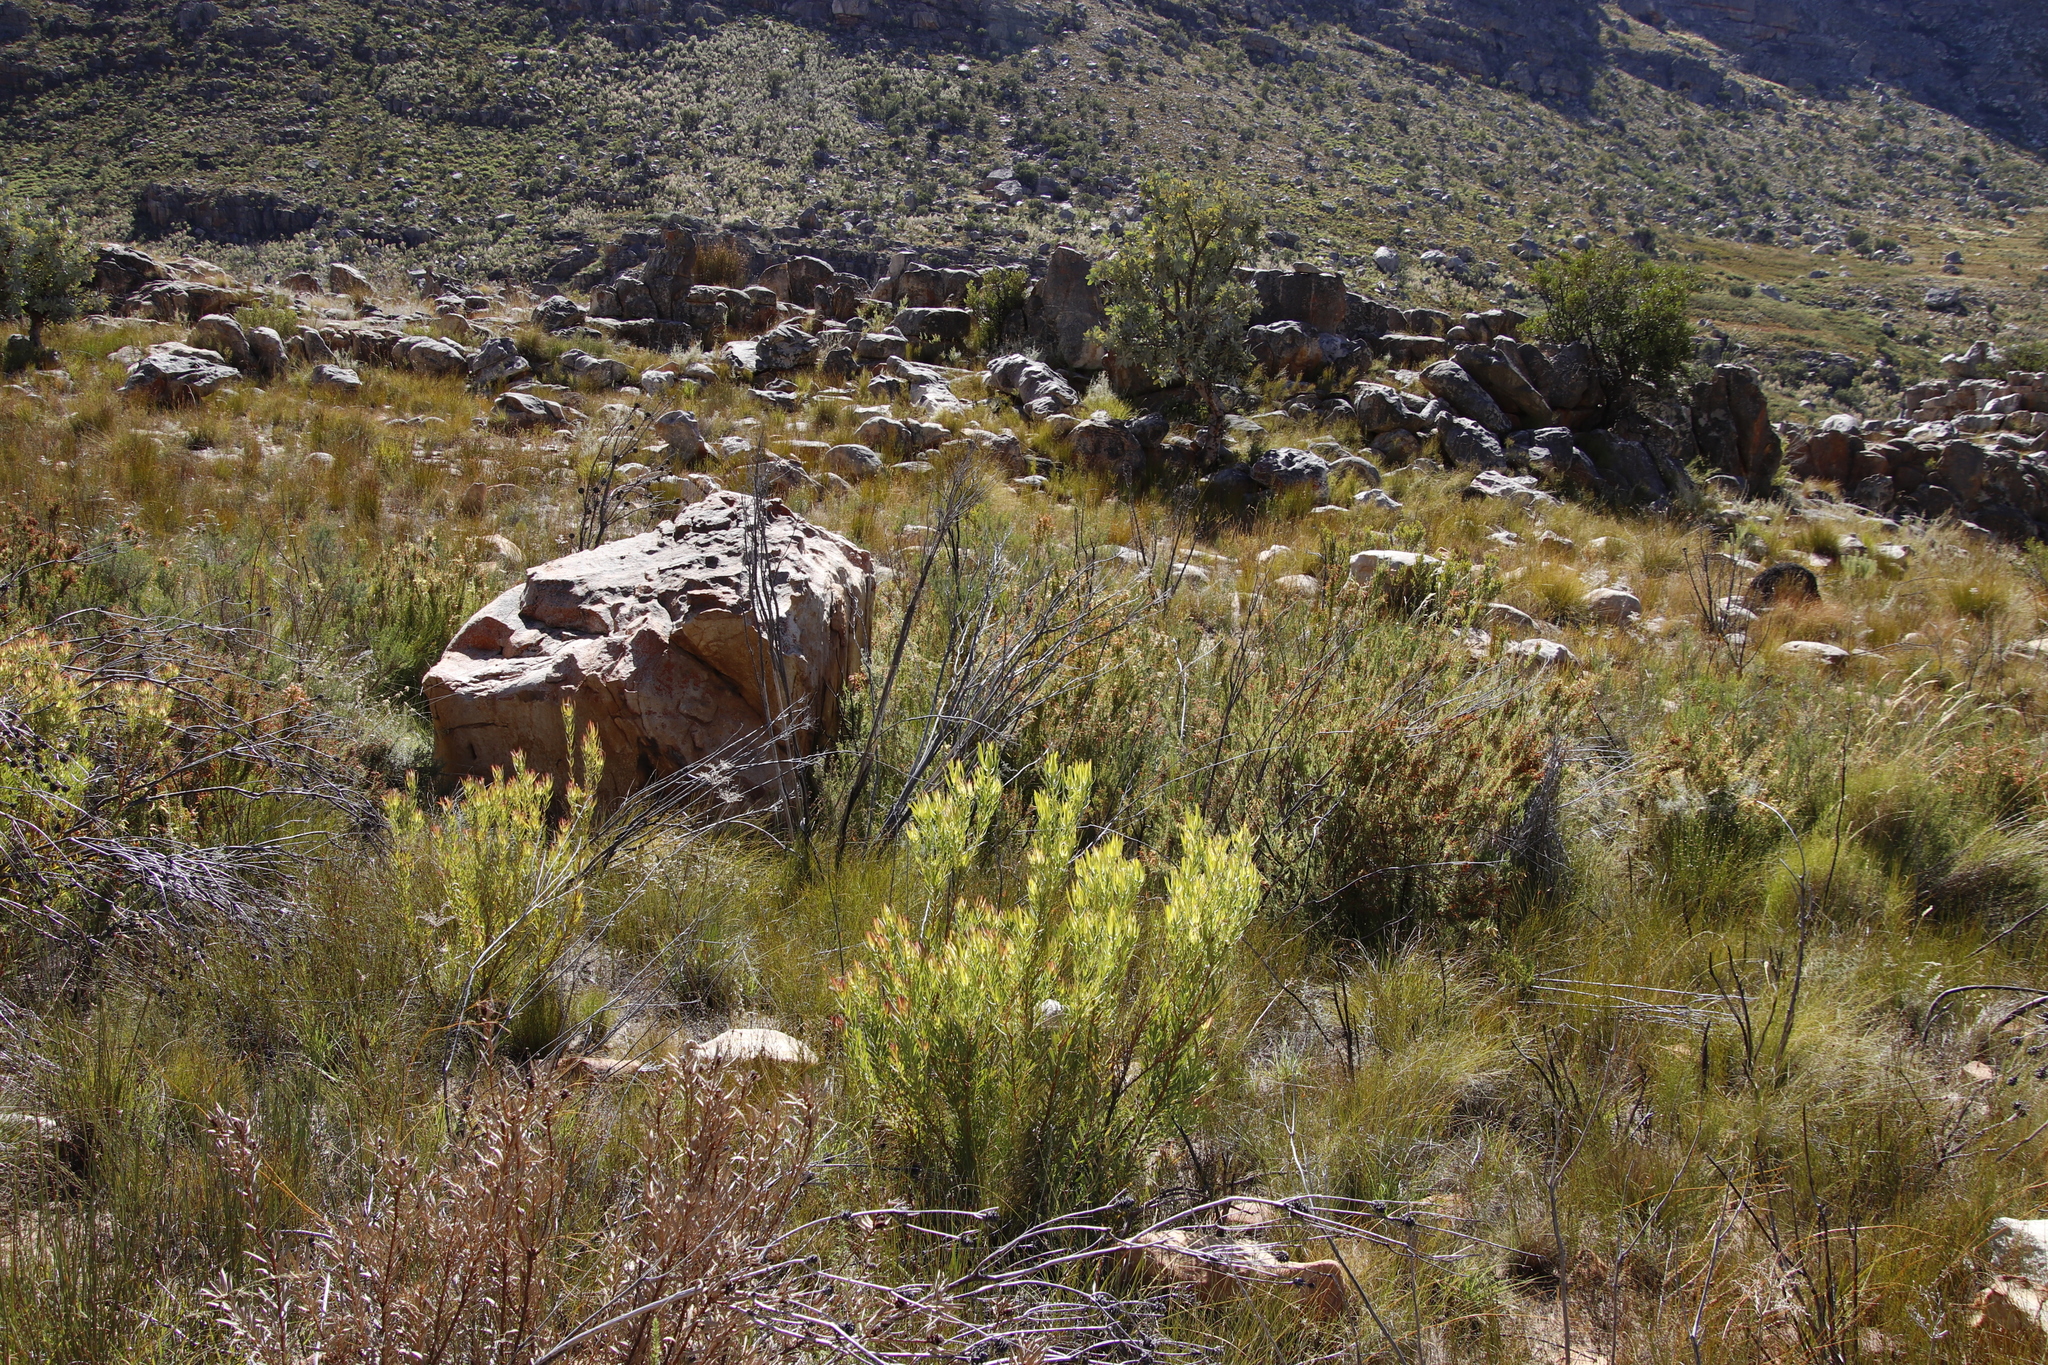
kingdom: Plantae
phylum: Tracheophyta
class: Magnoliopsida
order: Proteales
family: Proteaceae
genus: Leucadendron
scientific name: Leucadendron salignum
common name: Common sunshine conebush
